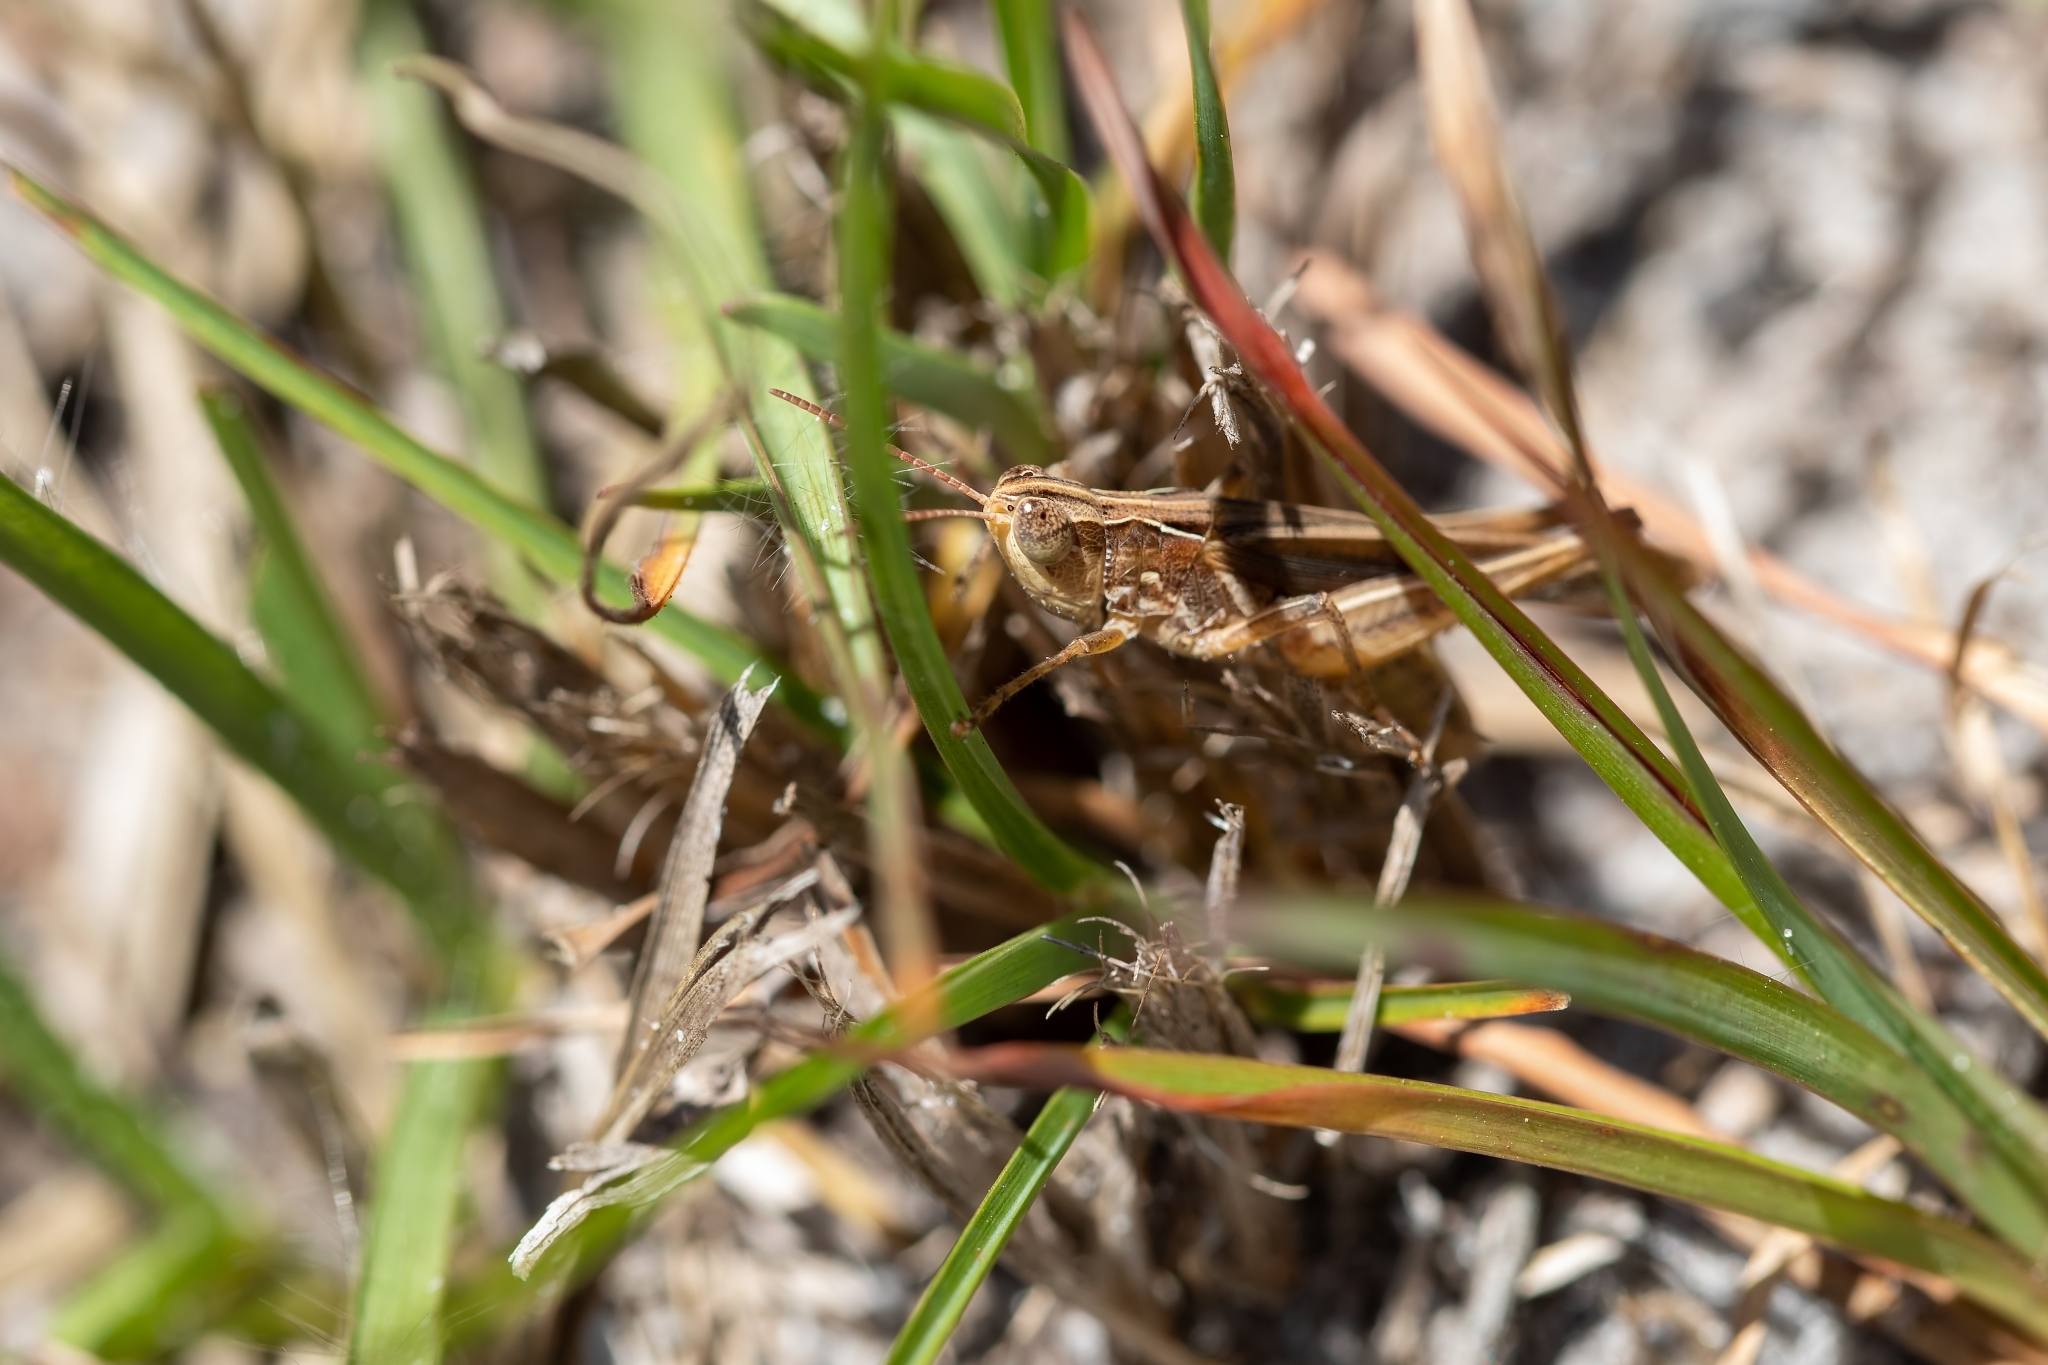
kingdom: Animalia
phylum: Arthropoda
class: Insecta
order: Orthoptera
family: Acrididae
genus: Orphulella
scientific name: Orphulella pelidna
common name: Spotted-wing grasshopper
